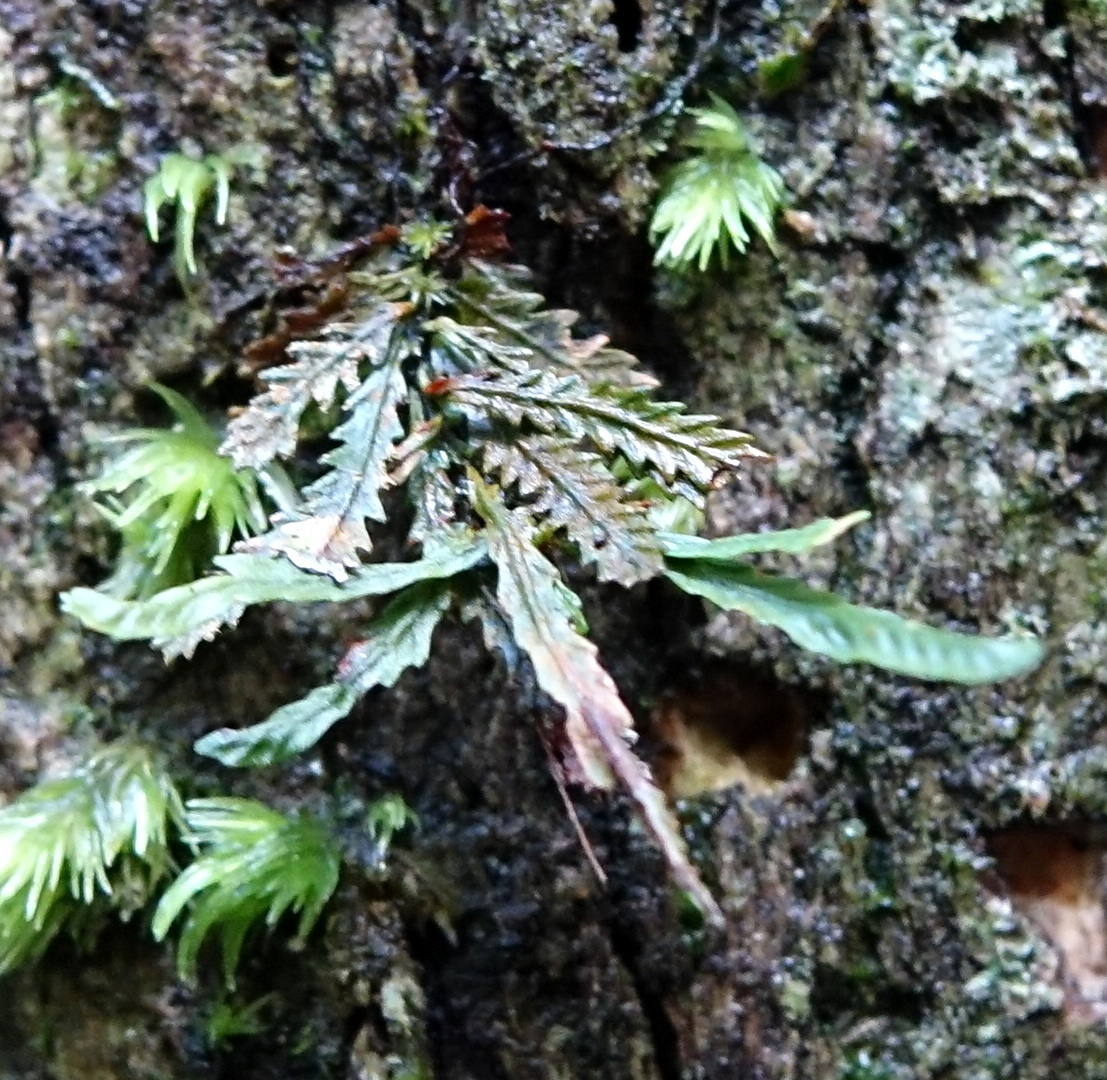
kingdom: Plantae
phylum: Tracheophyta
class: Polypodiopsida
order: Polypodiales
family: Polypodiaceae
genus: Cochlidium
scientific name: Cochlidium serrulatum
